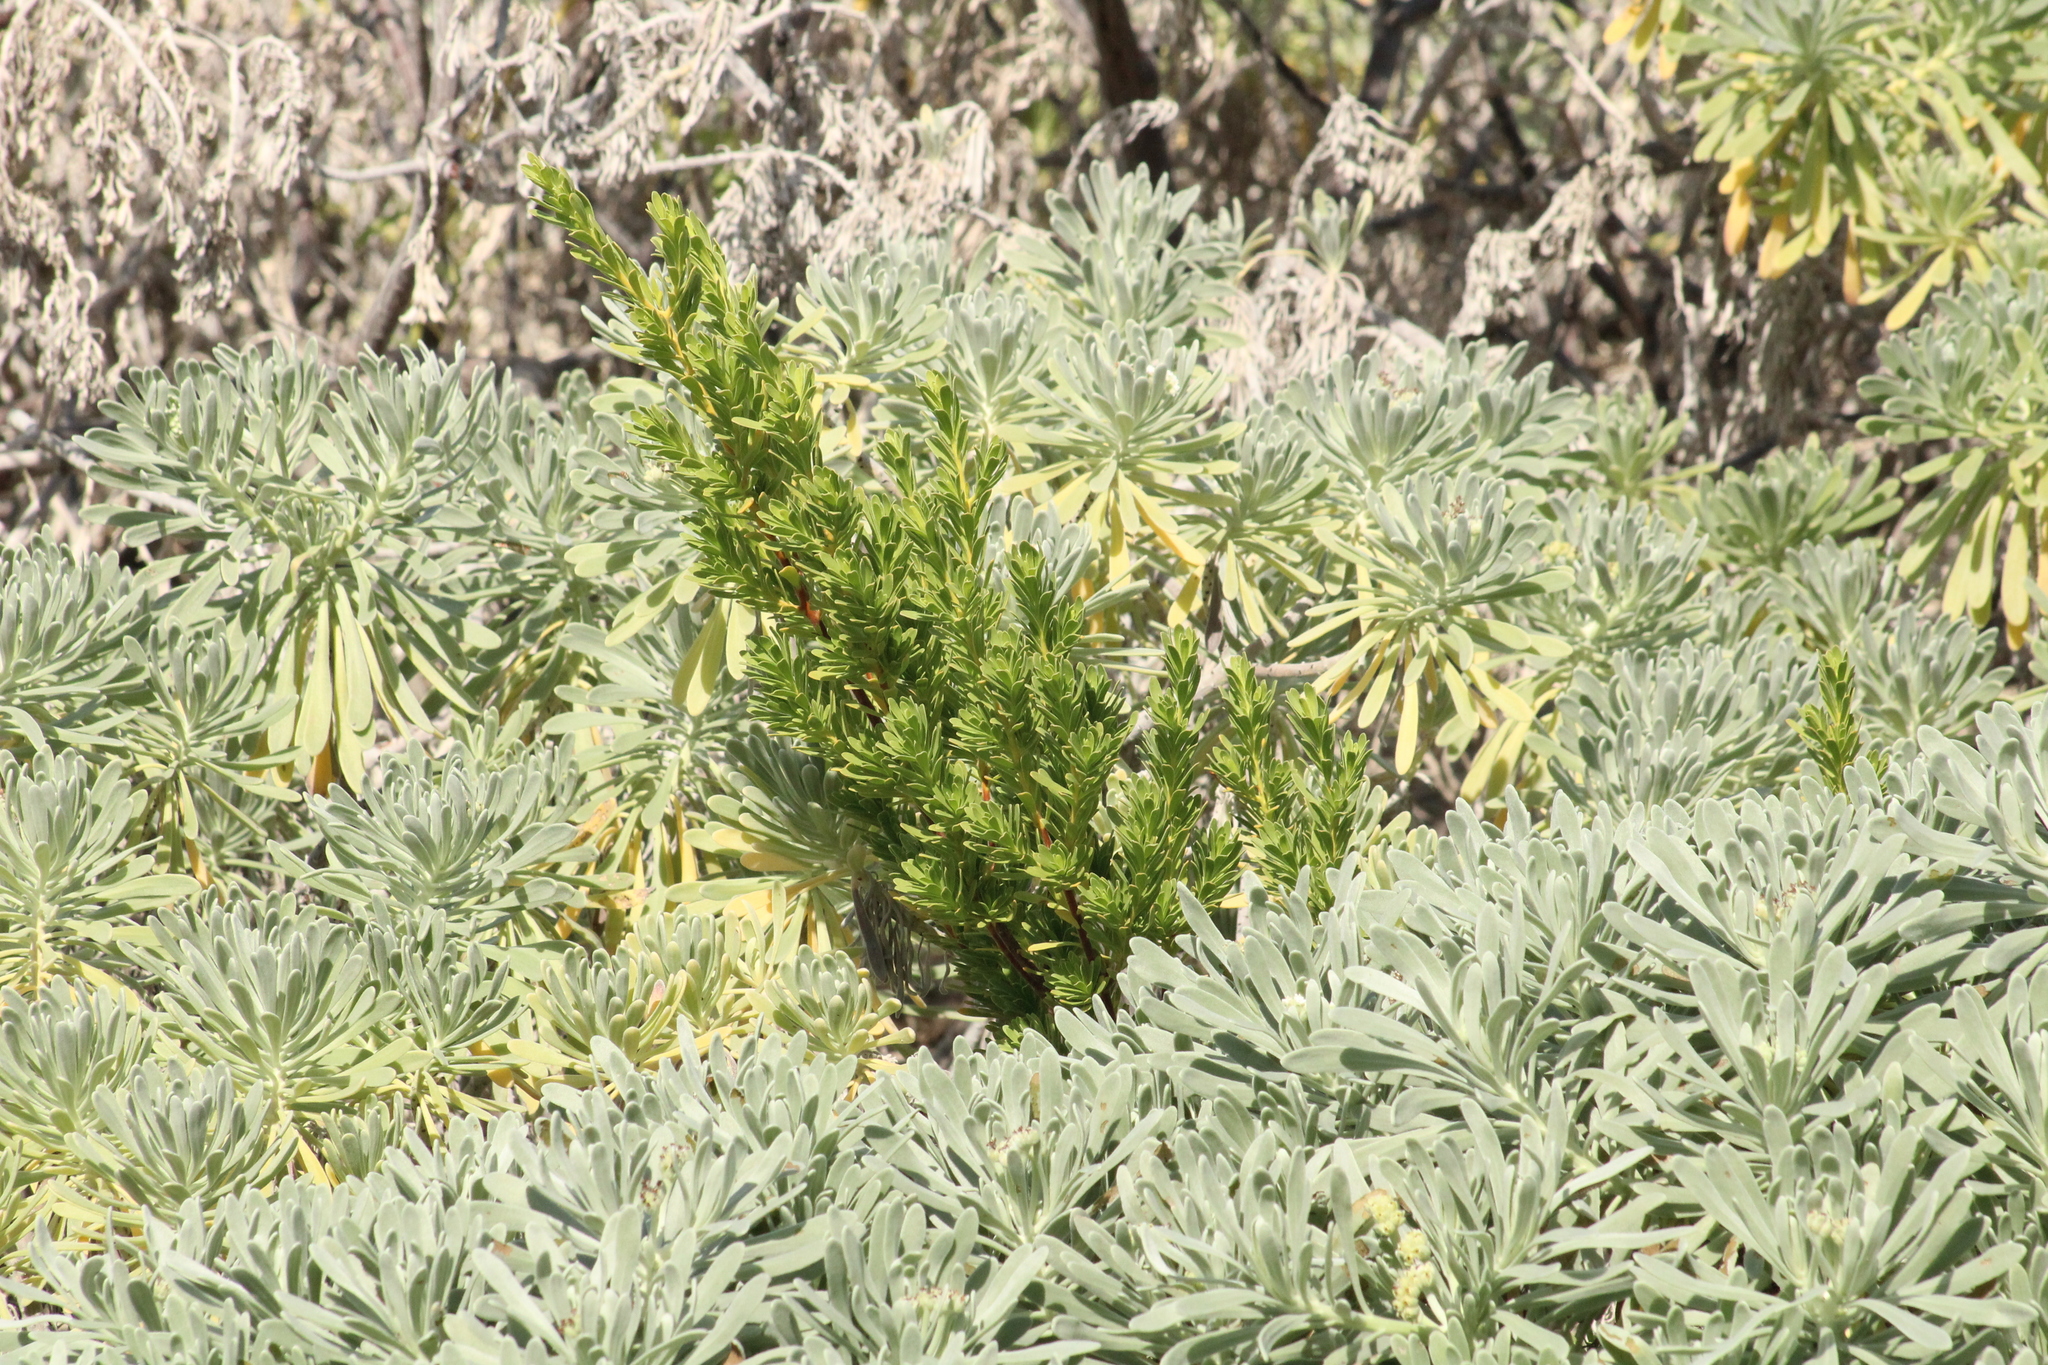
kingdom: Plantae
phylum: Tracheophyta
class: Magnoliopsida
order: Fabales
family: Surianaceae
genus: Suriana
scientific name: Suriana maritima
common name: Bay-cedar
